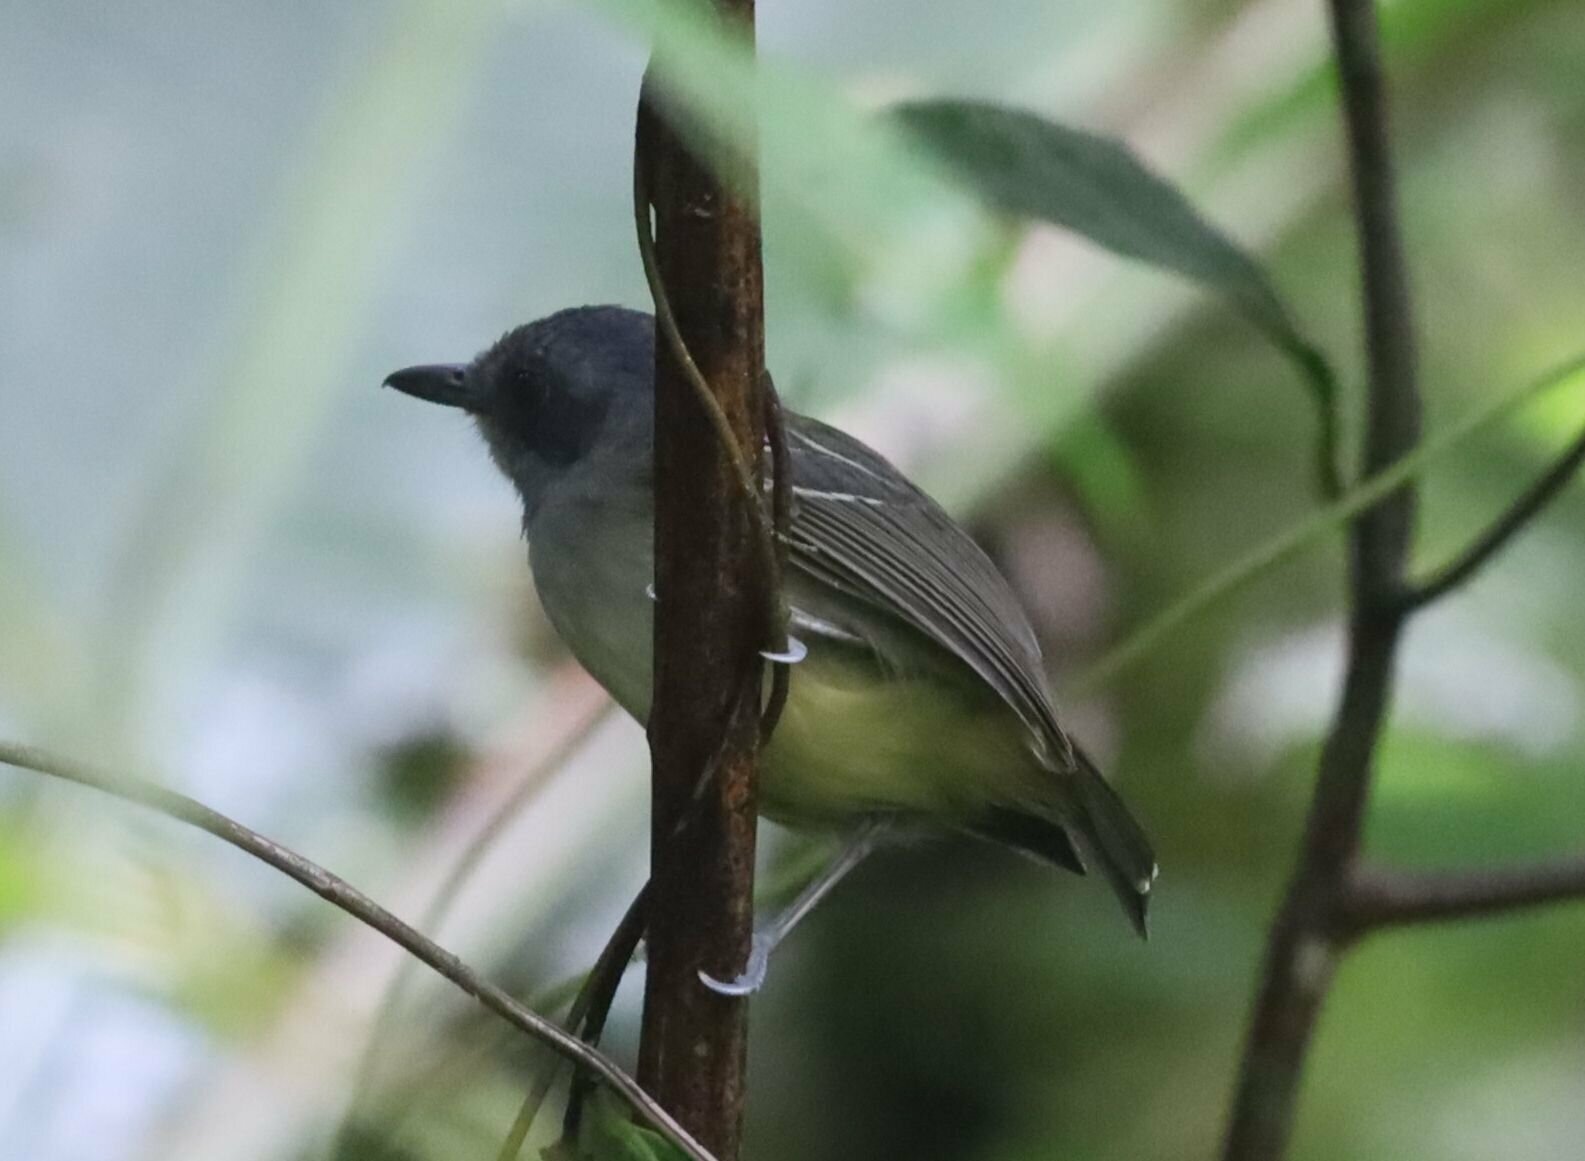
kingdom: Animalia
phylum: Chordata
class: Aves
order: Passeriformes
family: Thamnophilidae
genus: Dysithamnus
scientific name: Dysithamnus mentalis
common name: Plain antvireo
